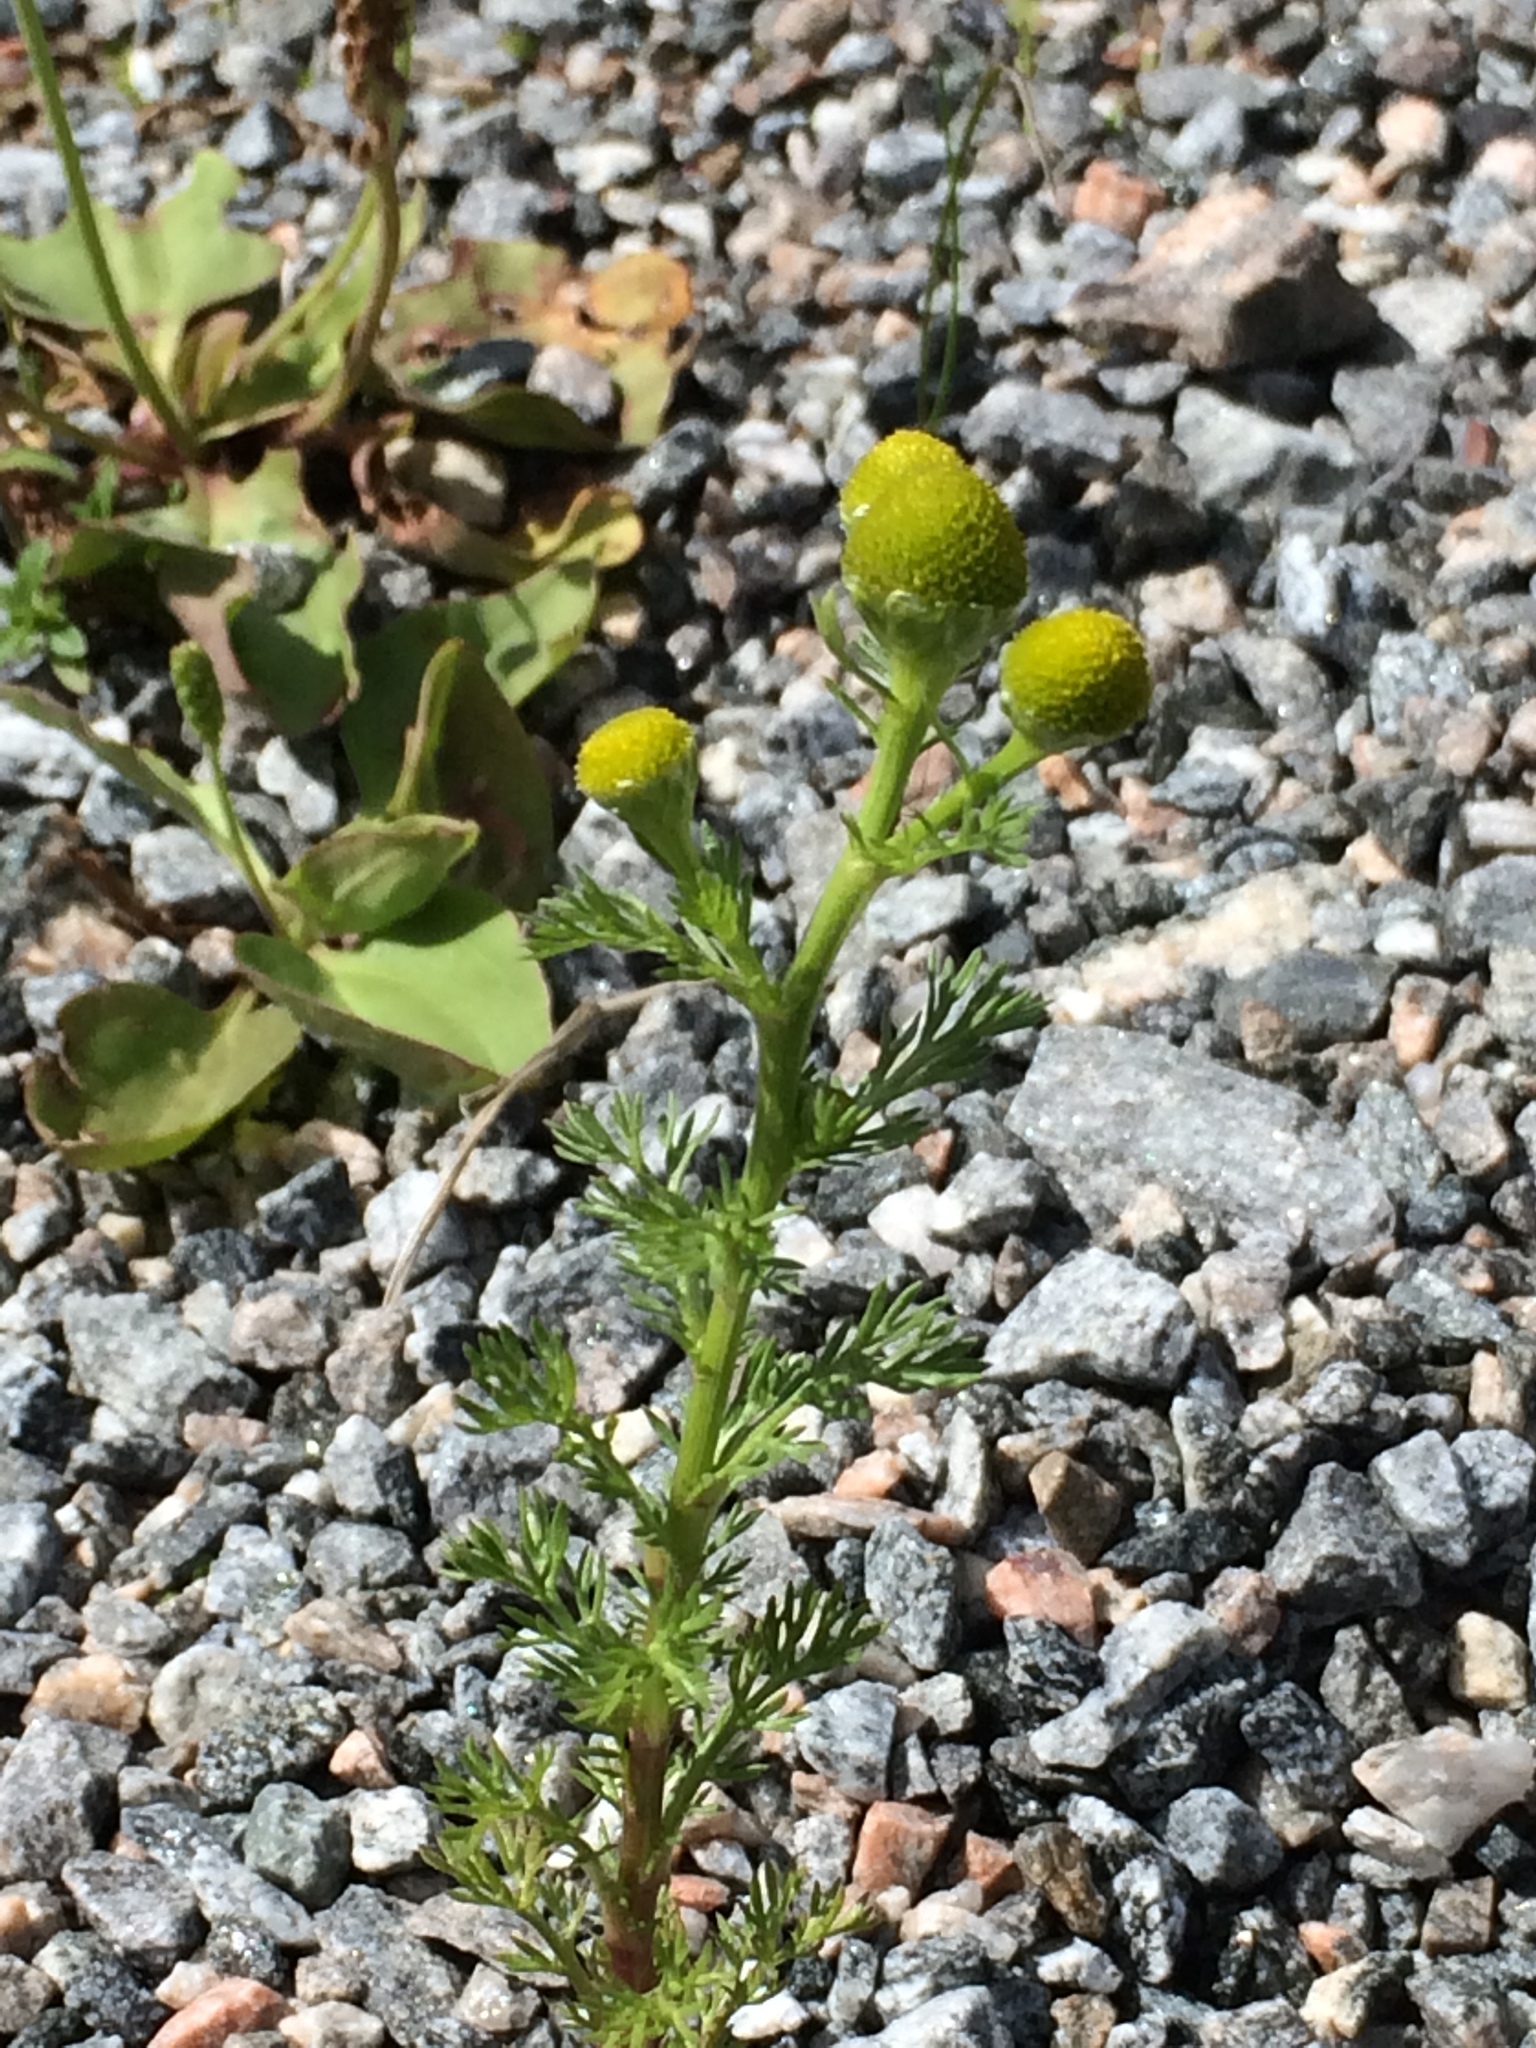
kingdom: Plantae
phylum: Tracheophyta
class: Magnoliopsida
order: Asterales
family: Asteraceae
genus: Matricaria
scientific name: Matricaria discoidea
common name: Disc mayweed
